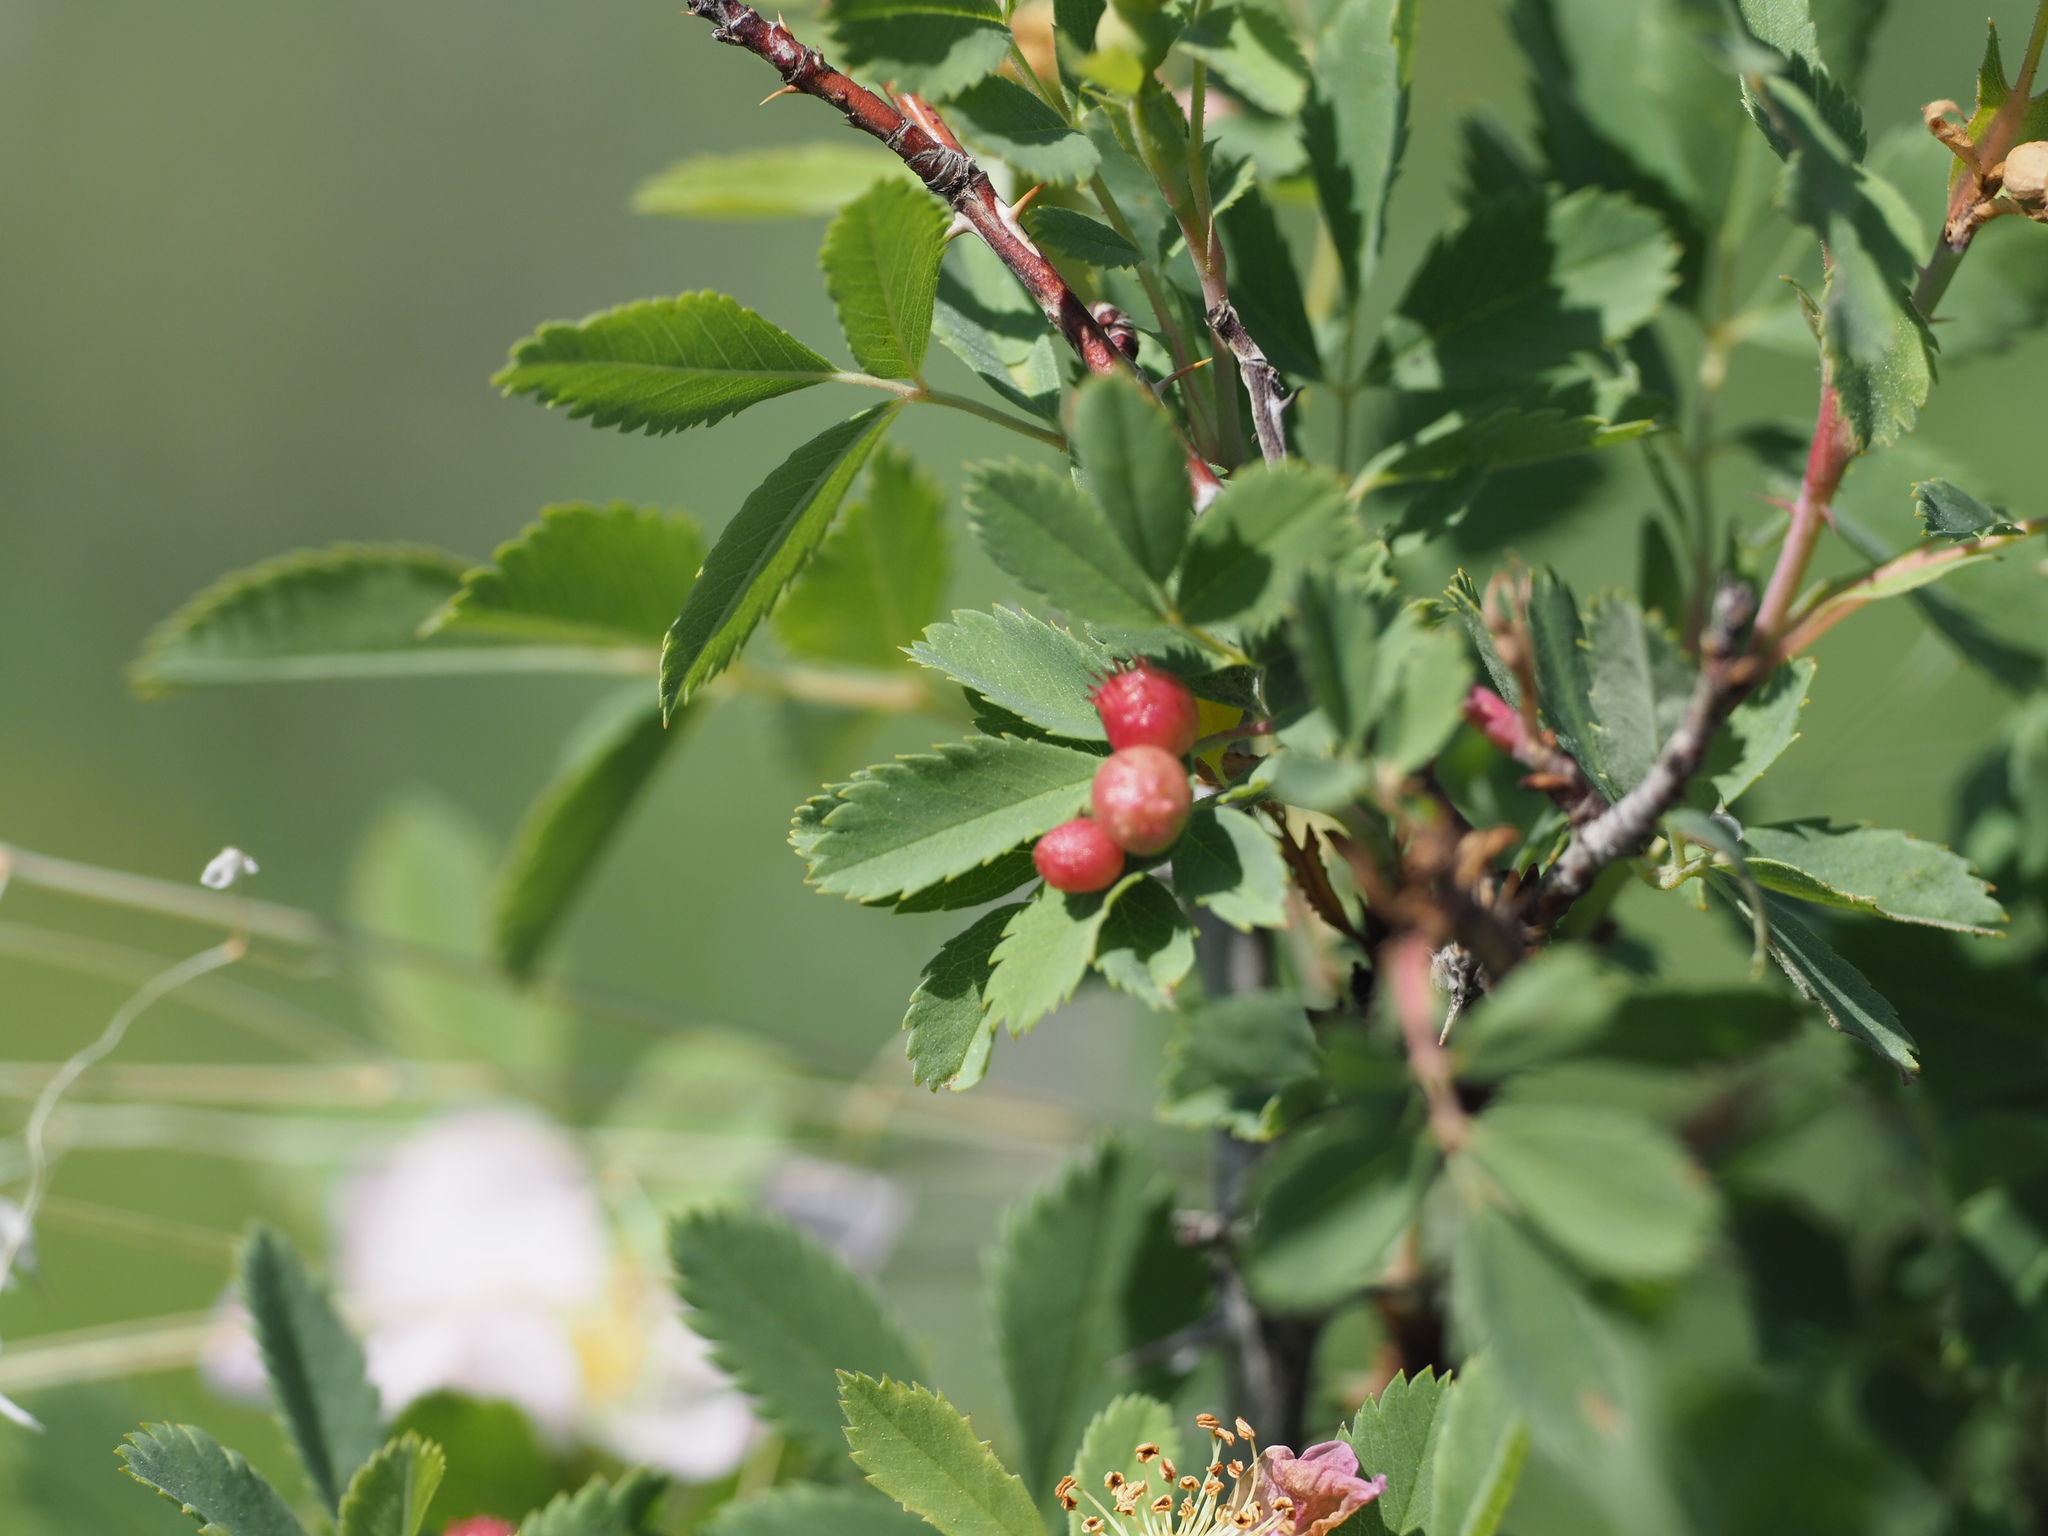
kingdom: Animalia
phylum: Arthropoda
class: Insecta
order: Hymenoptera
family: Cynipidae
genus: Diplolepis
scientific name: Diplolepis polita
